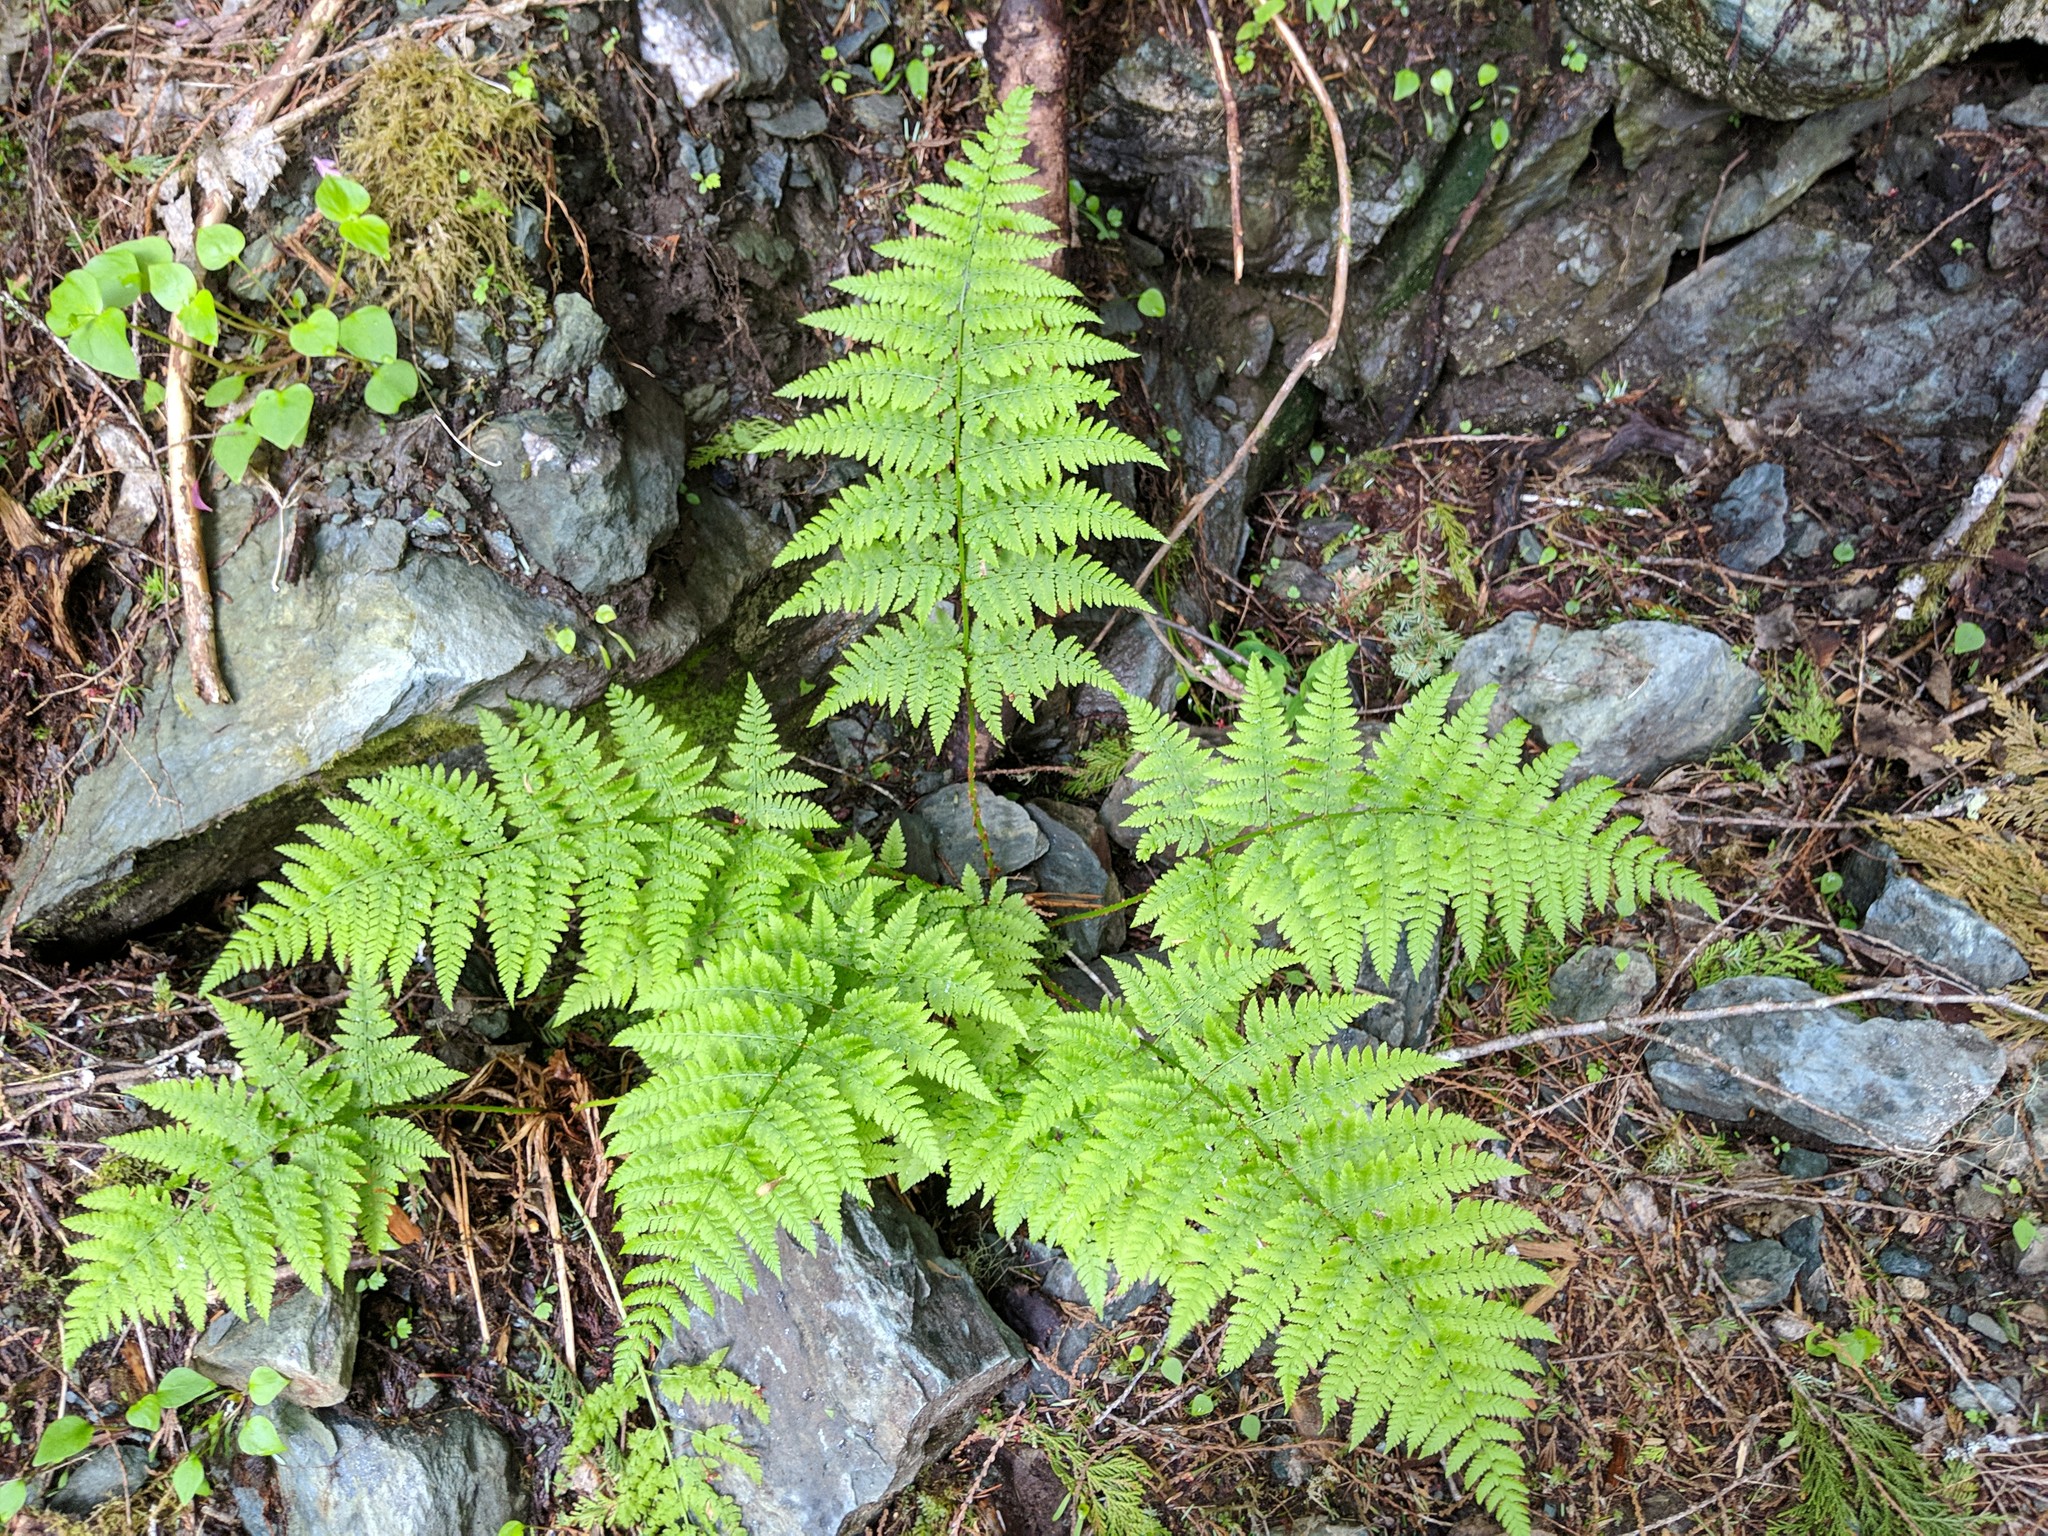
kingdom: Plantae
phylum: Tracheophyta
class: Polypodiopsida
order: Polypodiales
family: Dryopteridaceae
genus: Dryopteris
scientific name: Dryopteris expansa
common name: Northern buckler fern
